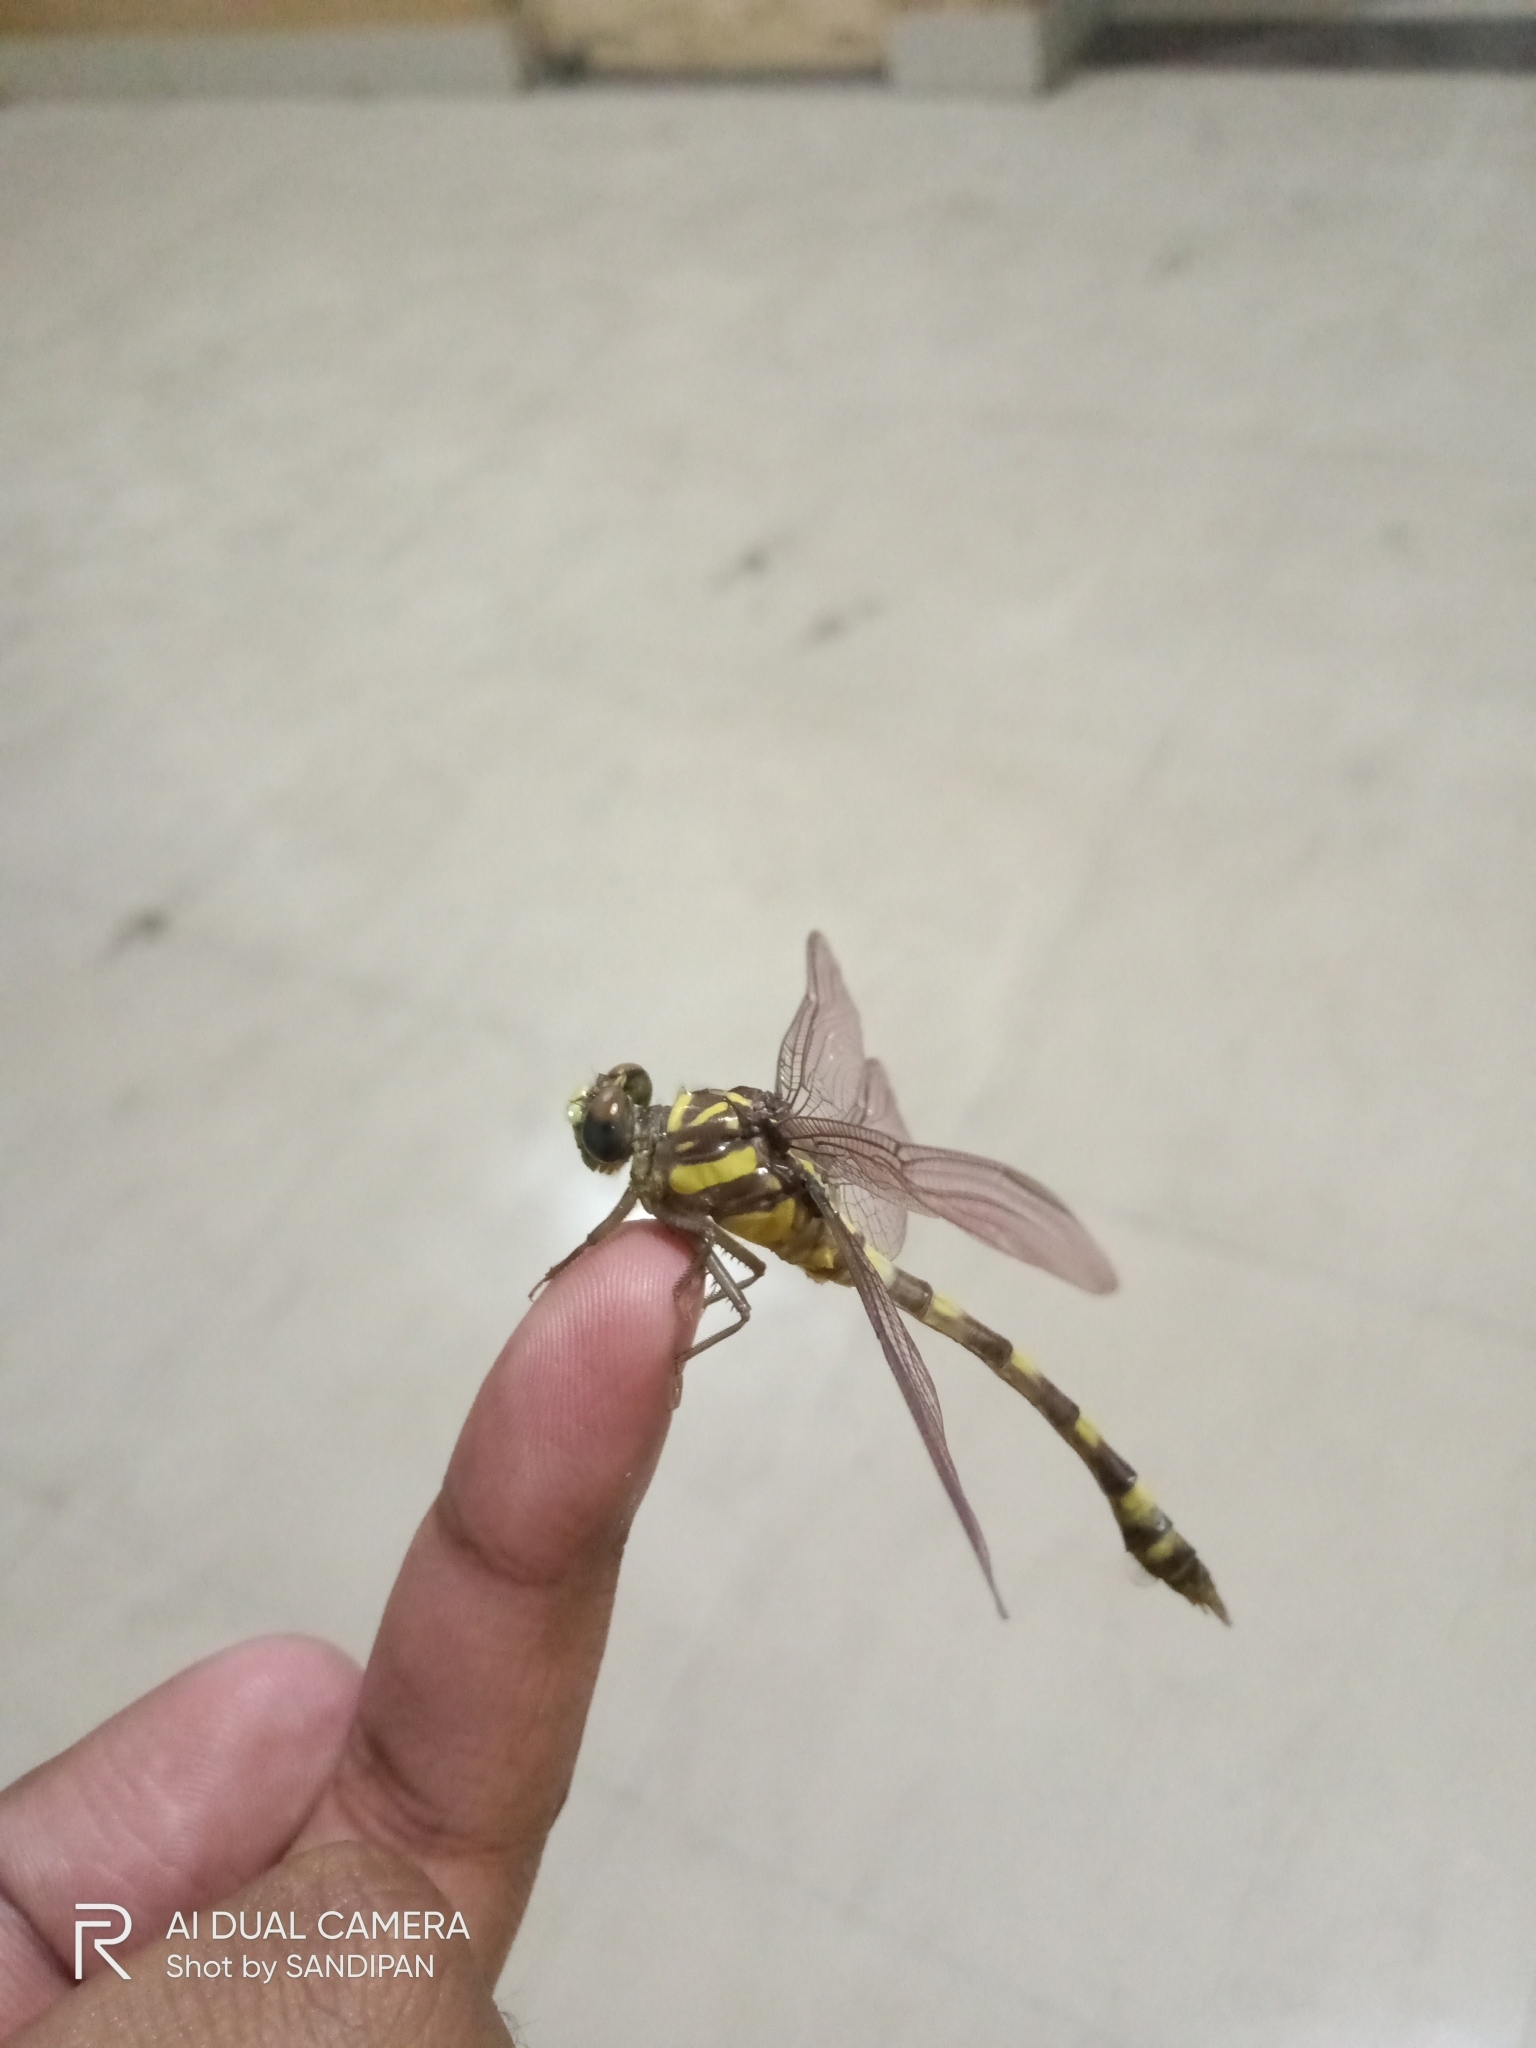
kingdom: Animalia
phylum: Arthropoda
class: Insecta
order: Odonata
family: Gomphidae
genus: Ictinogomphus
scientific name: Ictinogomphus rapax
